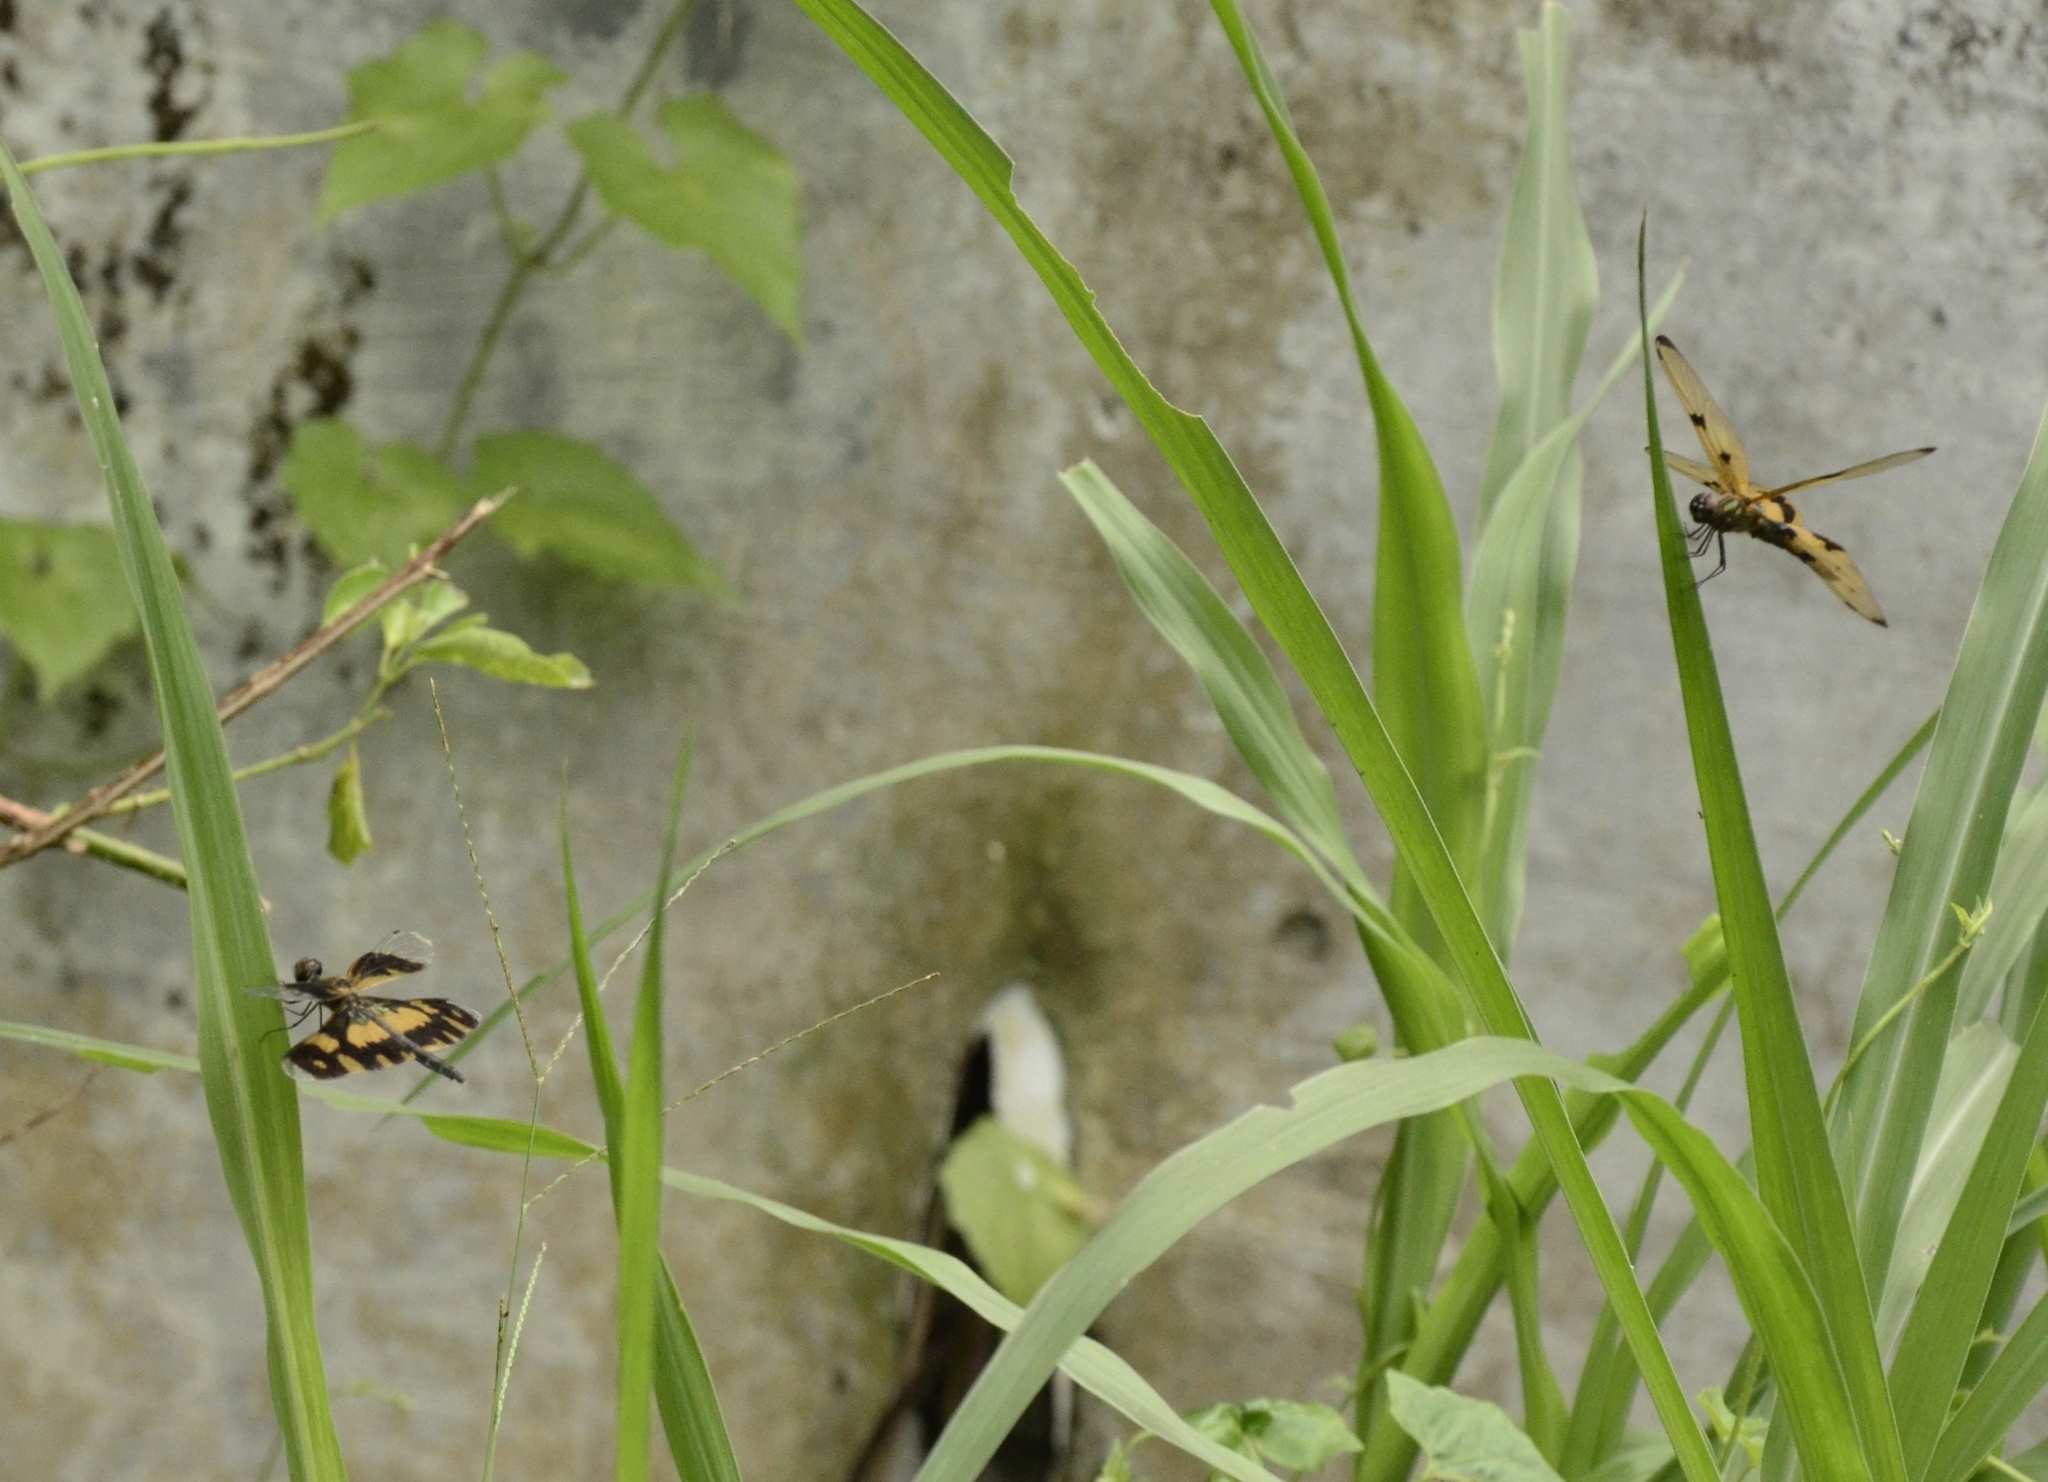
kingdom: Animalia
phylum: Arthropoda
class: Insecta
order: Odonata
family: Libellulidae
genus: Rhyothemis
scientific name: Rhyothemis variegata
